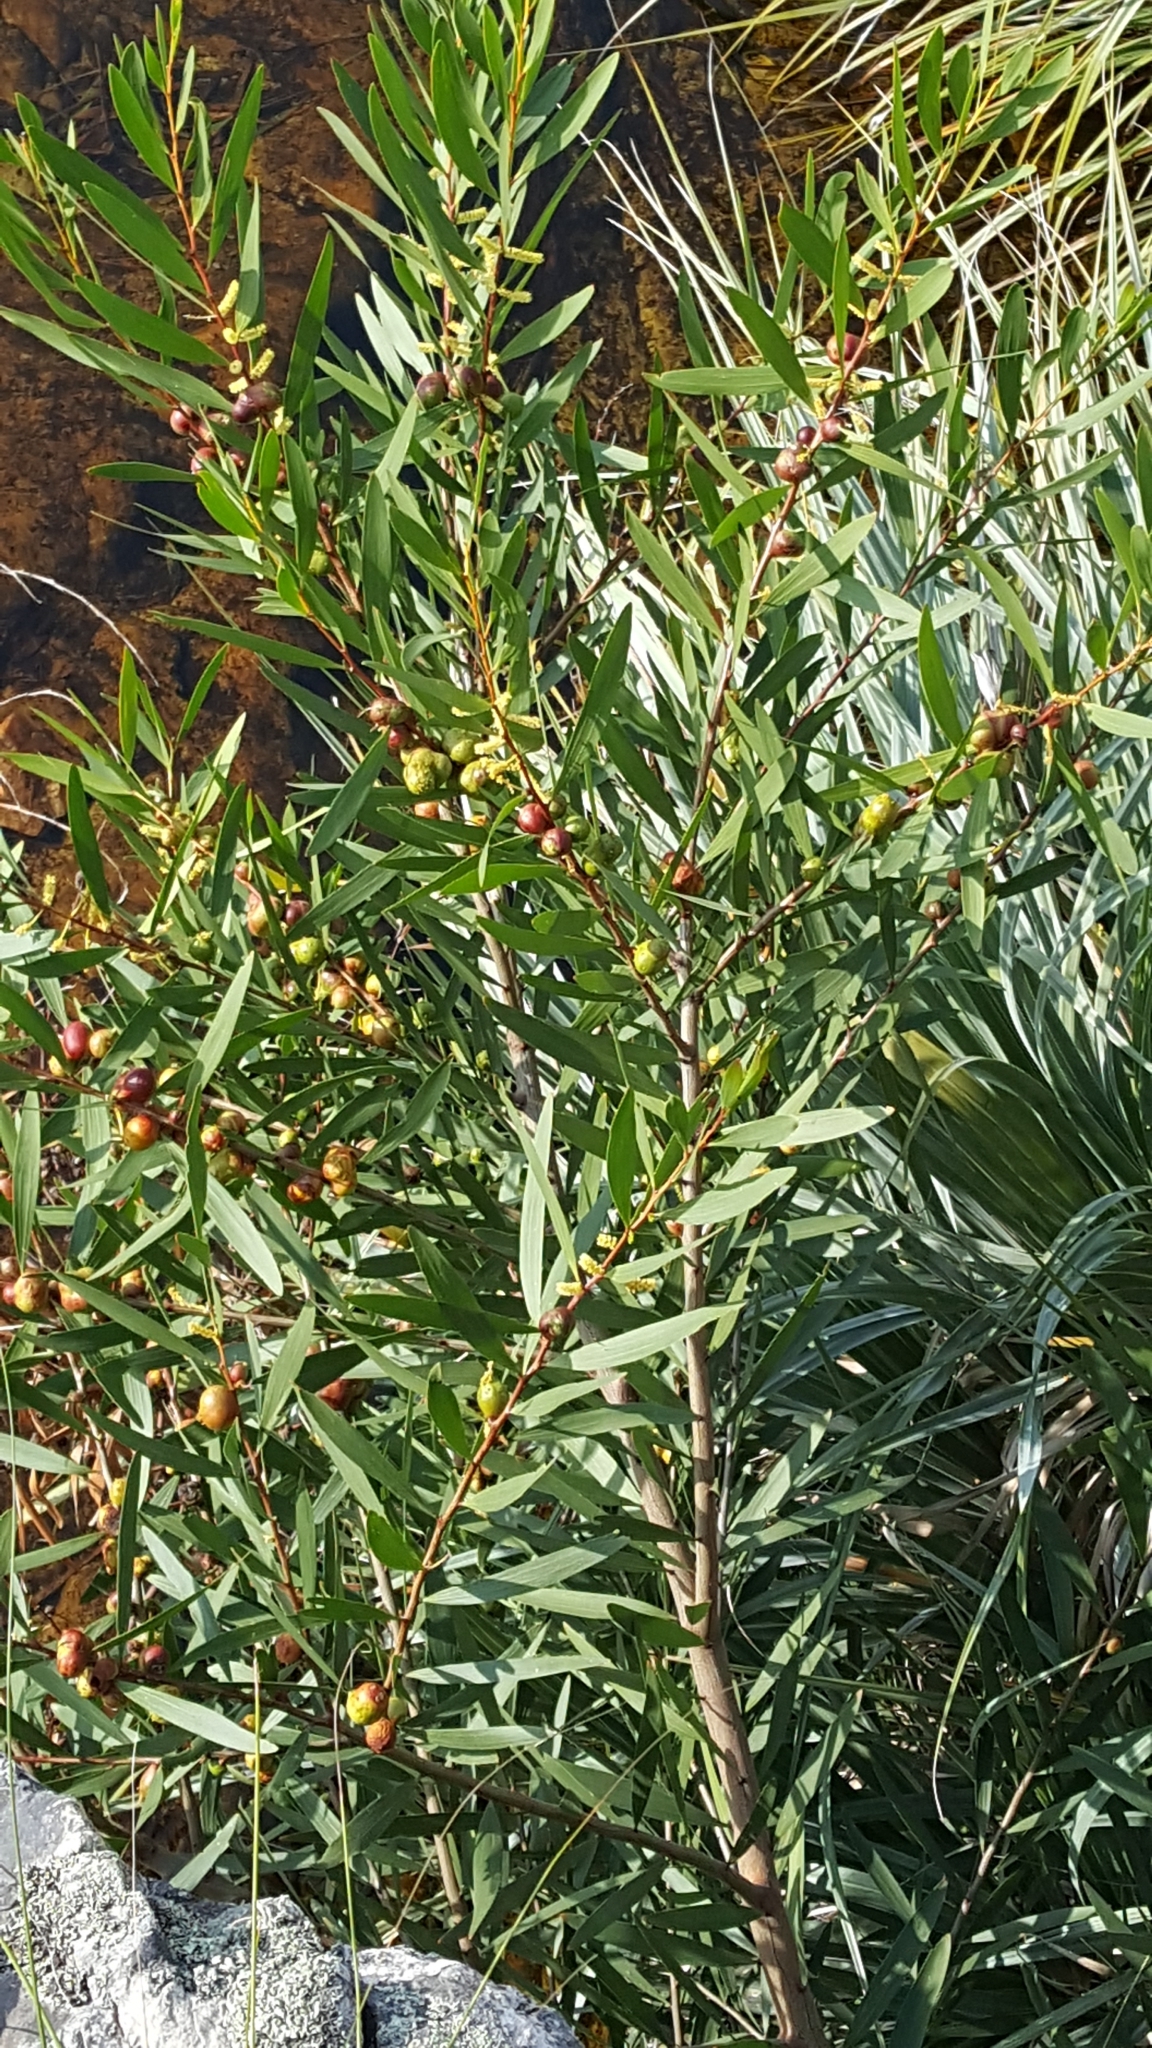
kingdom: Plantae
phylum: Tracheophyta
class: Magnoliopsida
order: Fabales
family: Fabaceae
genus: Acacia
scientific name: Acacia longifolia
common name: Sydney golden wattle
